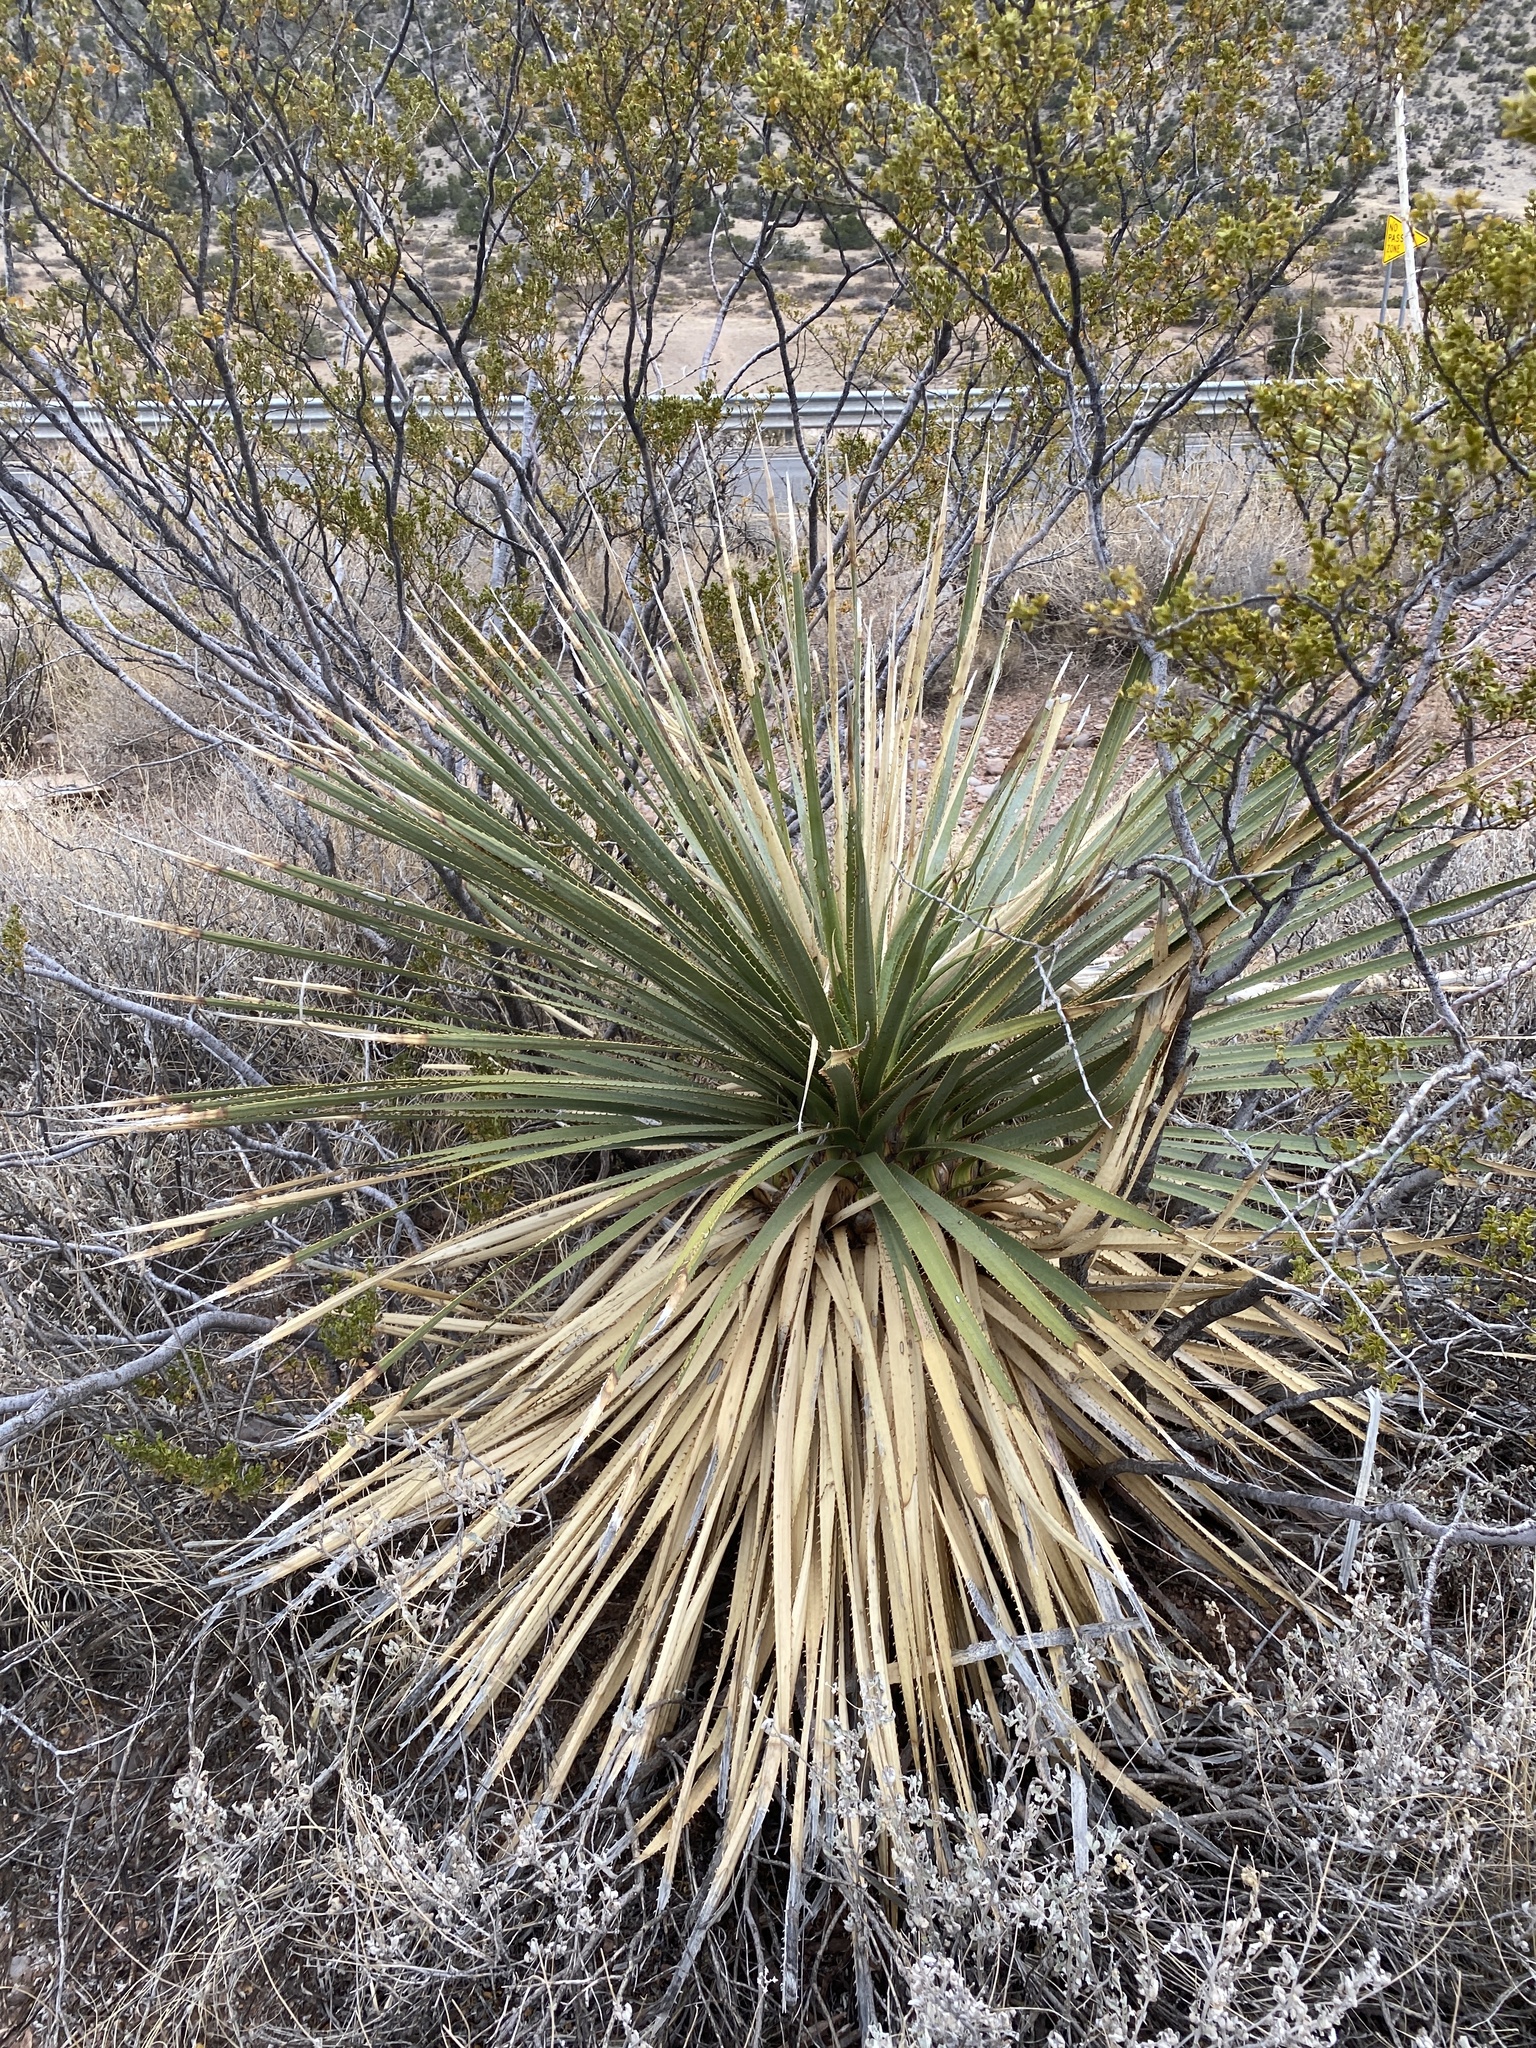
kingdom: Plantae
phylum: Tracheophyta
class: Liliopsida
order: Asparagales
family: Asparagaceae
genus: Dasylirion
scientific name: Dasylirion wheeleri
